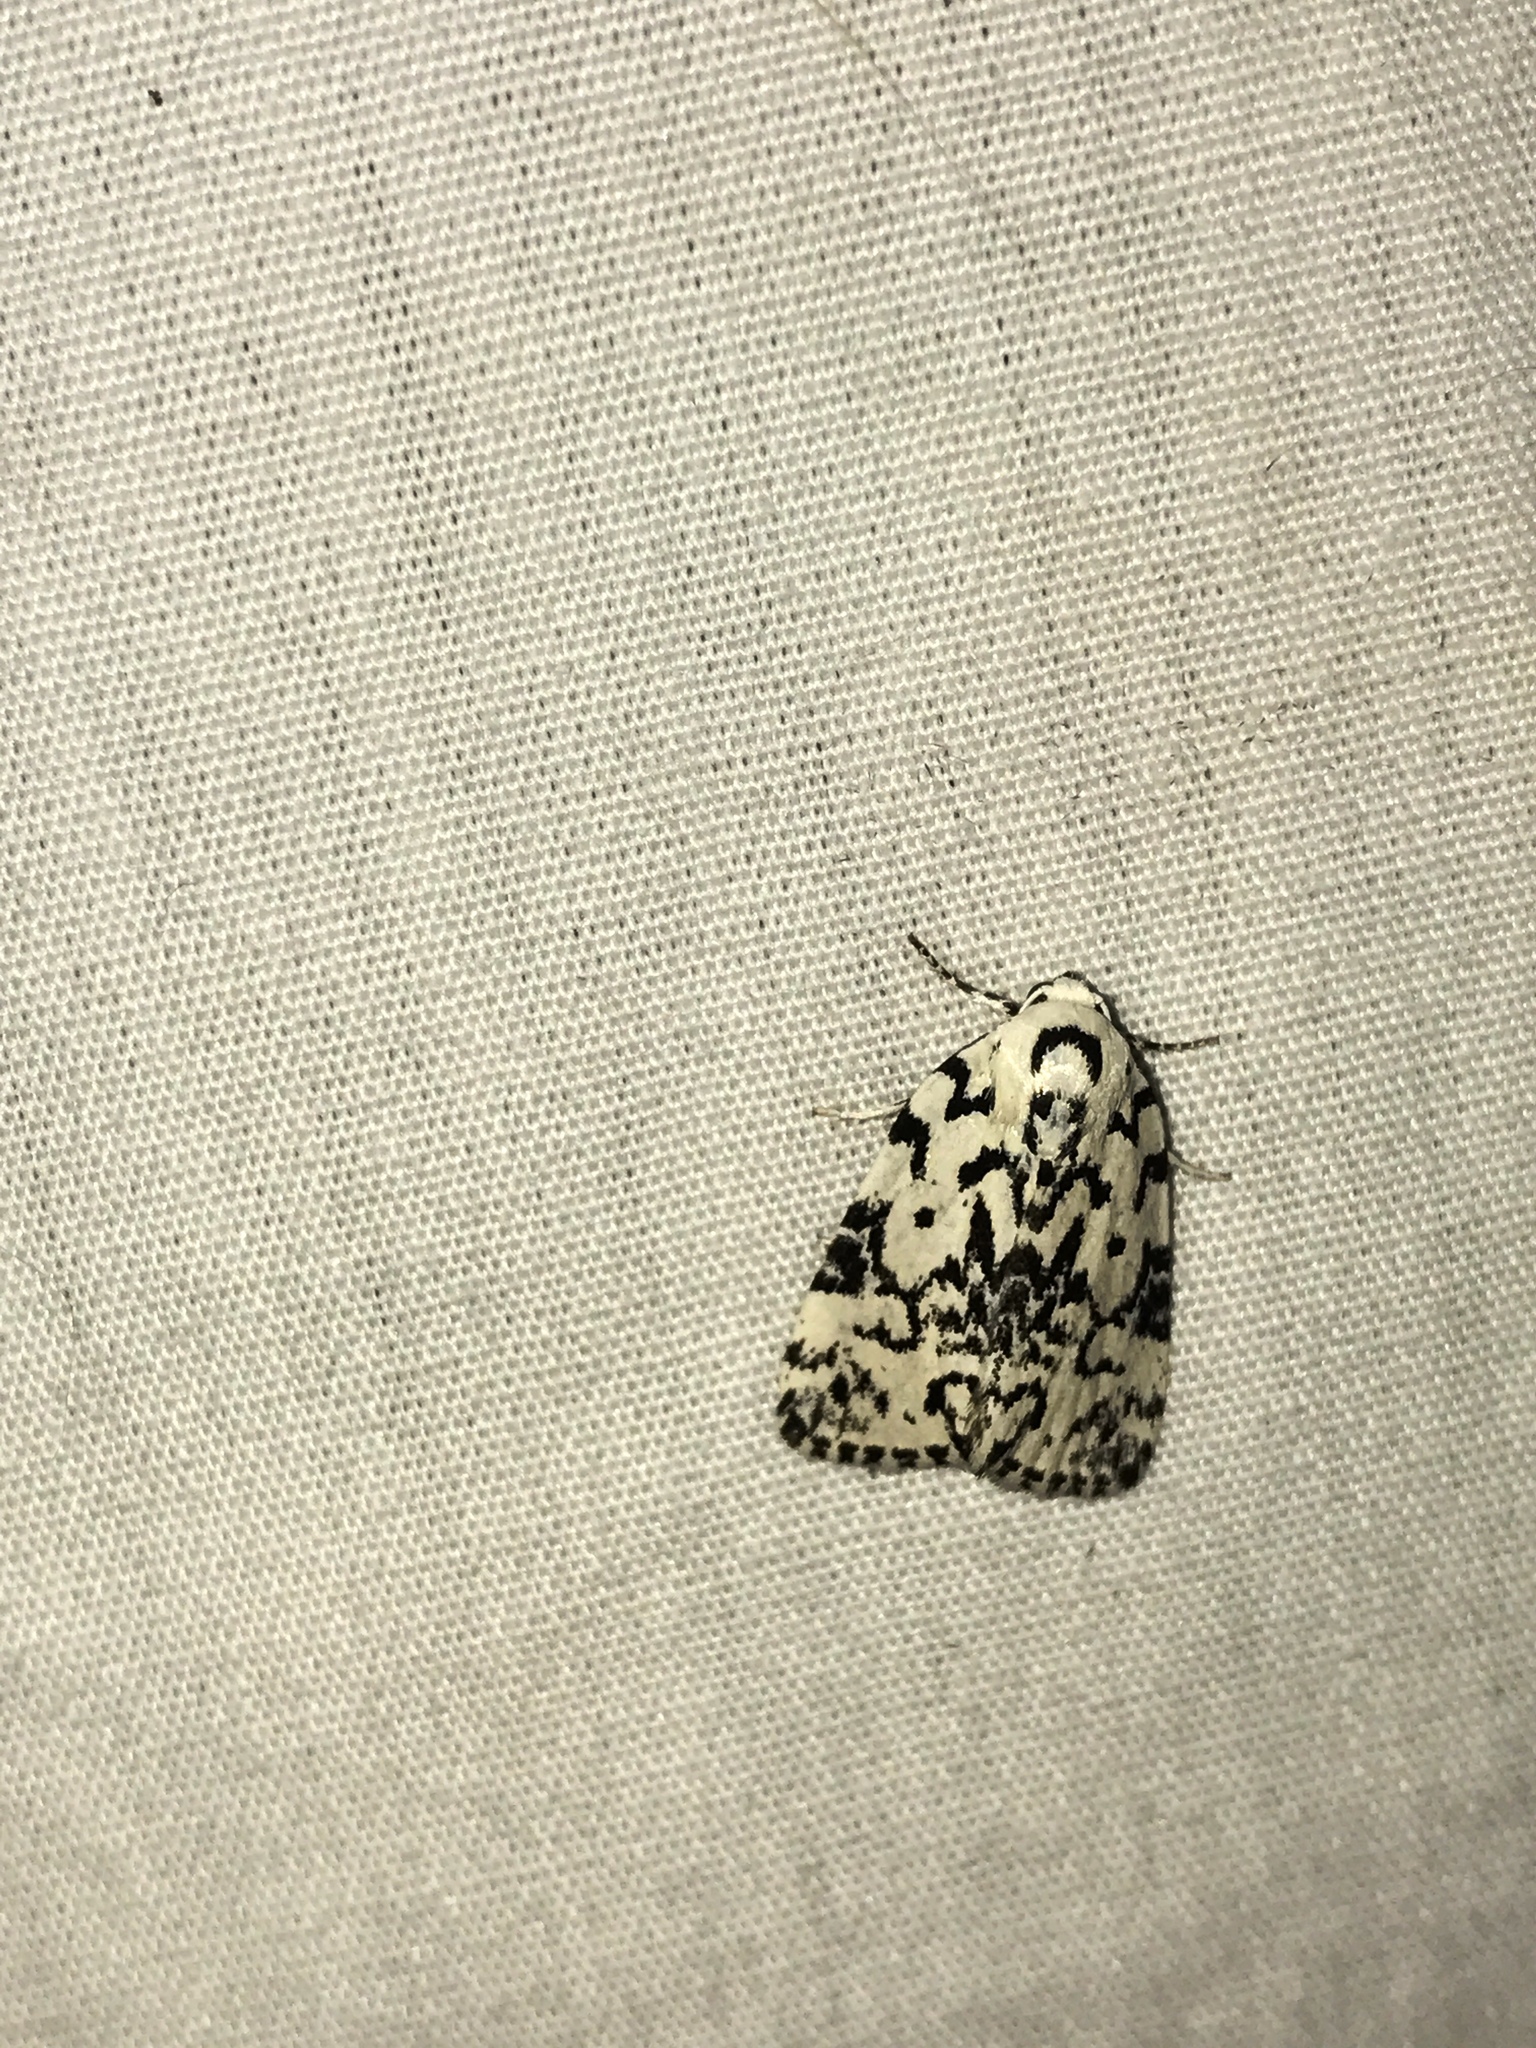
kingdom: Animalia
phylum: Arthropoda
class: Insecta
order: Lepidoptera
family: Noctuidae
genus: Polygrammate
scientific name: Polygrammate hebraeicum
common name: Hebrew moth
